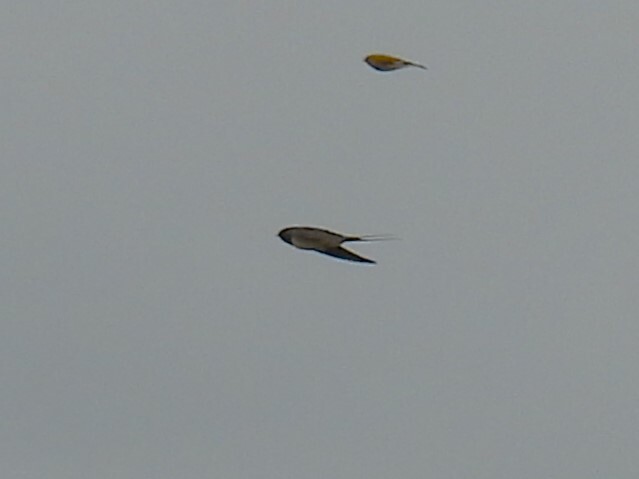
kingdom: Animalia
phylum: Chordata
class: Aves
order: Passeriformes
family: Hirundinidae
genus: Hirundo
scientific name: Hirundo rustica
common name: Barn swallow
